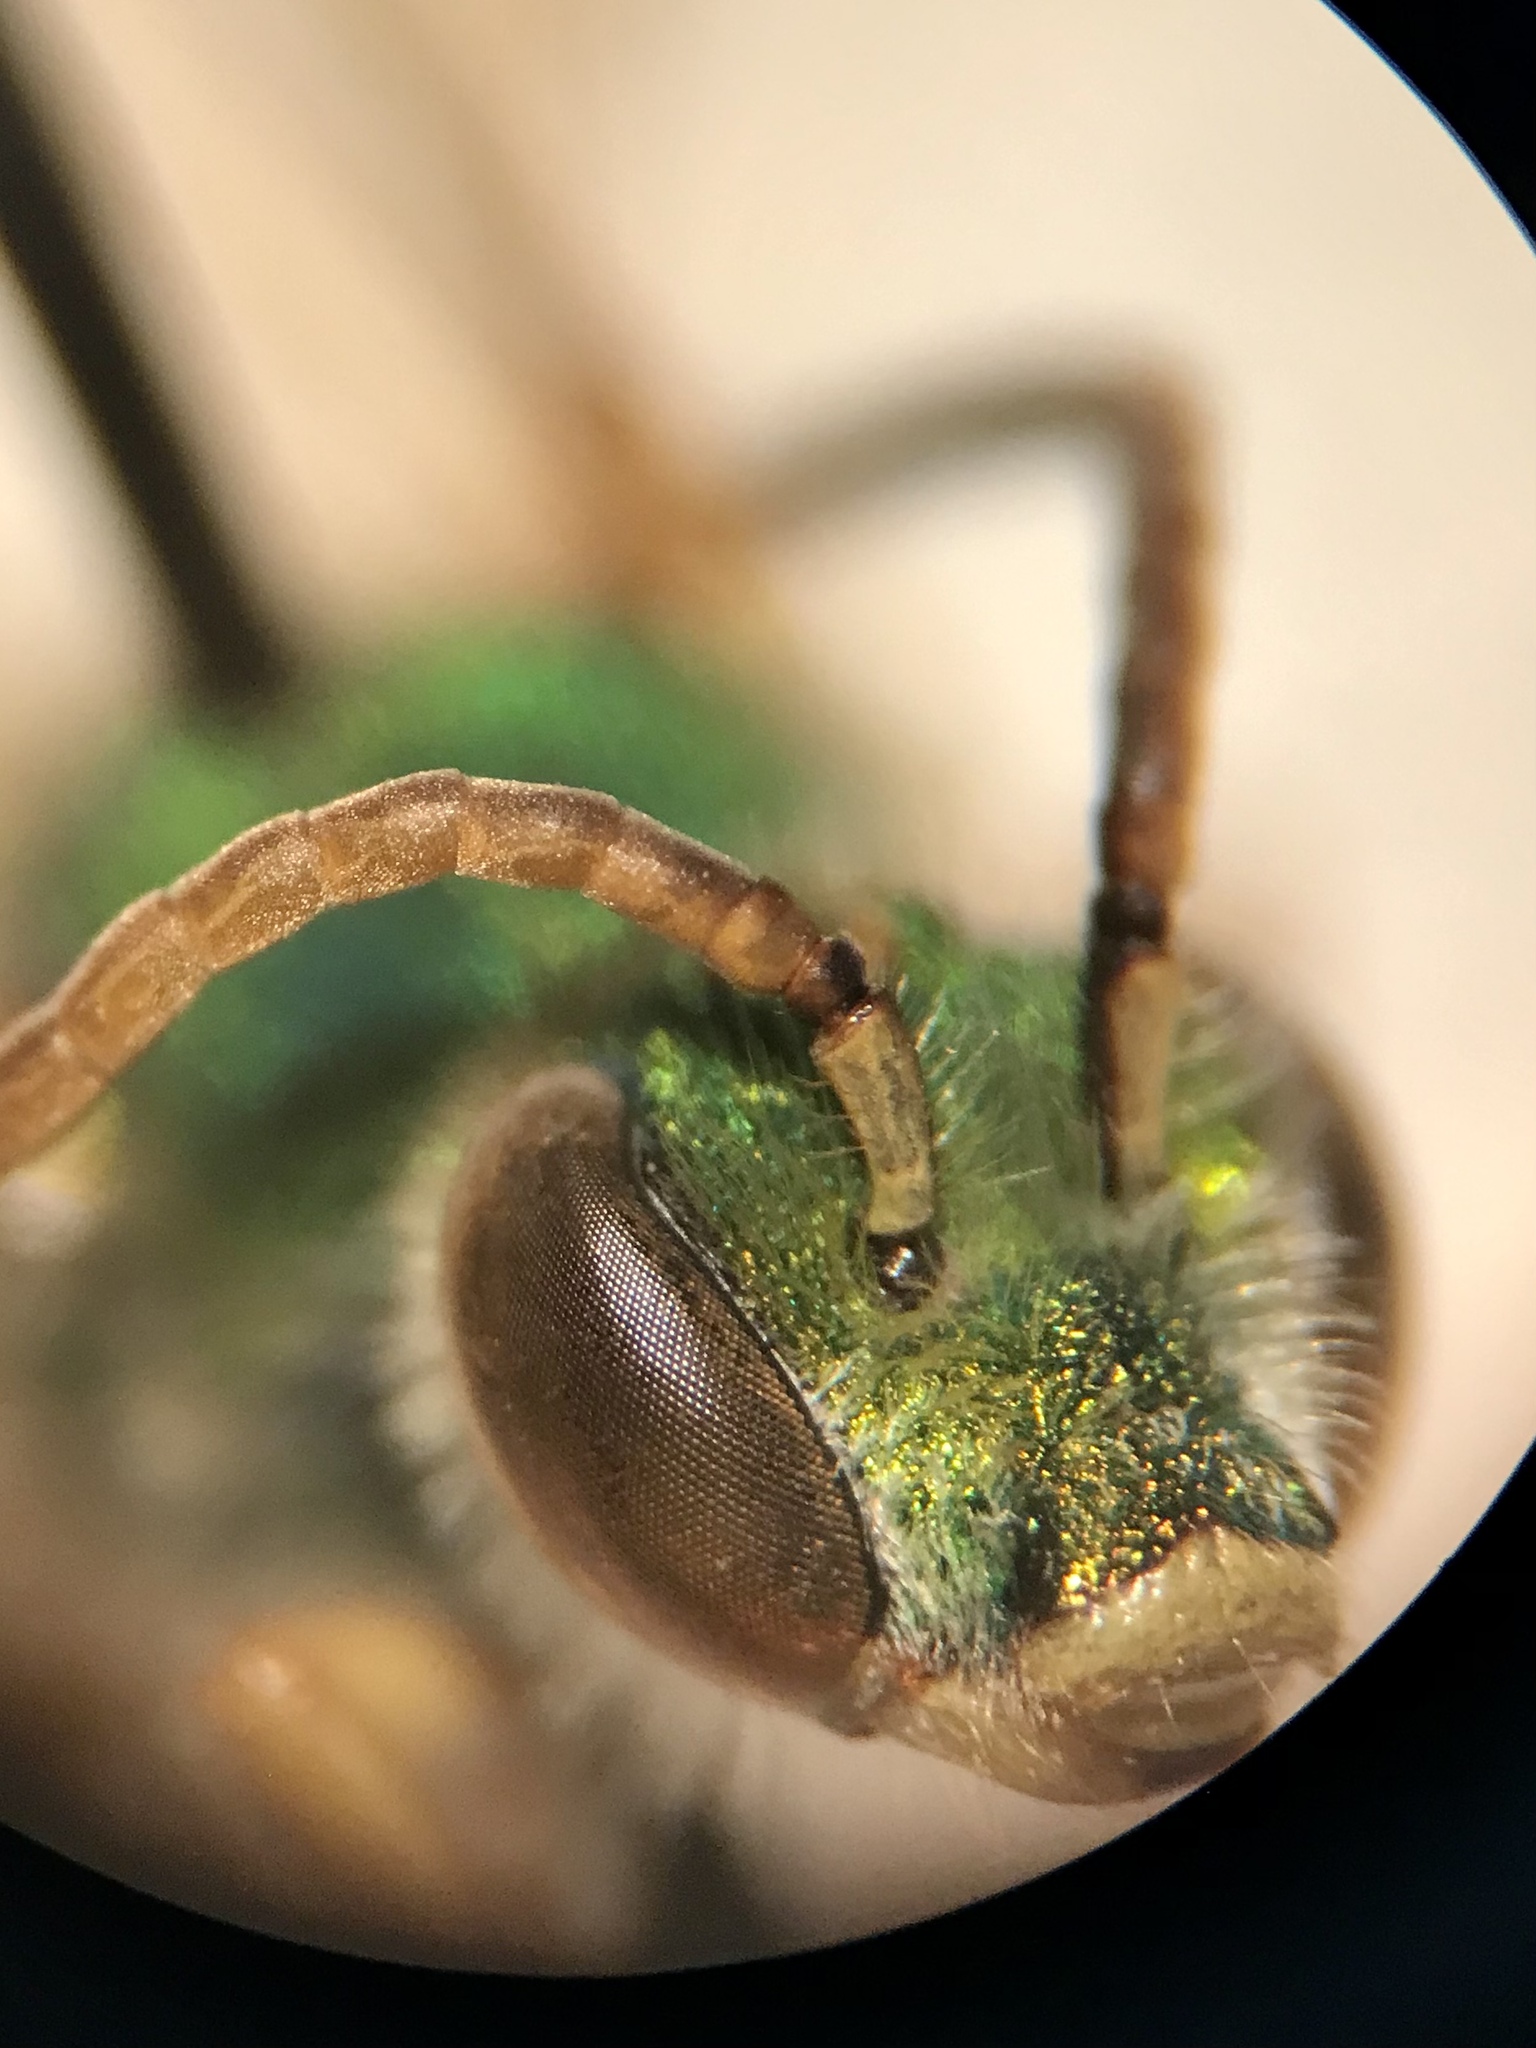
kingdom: Animalia
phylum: Arthropoda
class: Insecta
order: Hymenoptera
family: Halictidae
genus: Agapostemon
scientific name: Agapostemon sericeus
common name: Silky striped sweat bee
